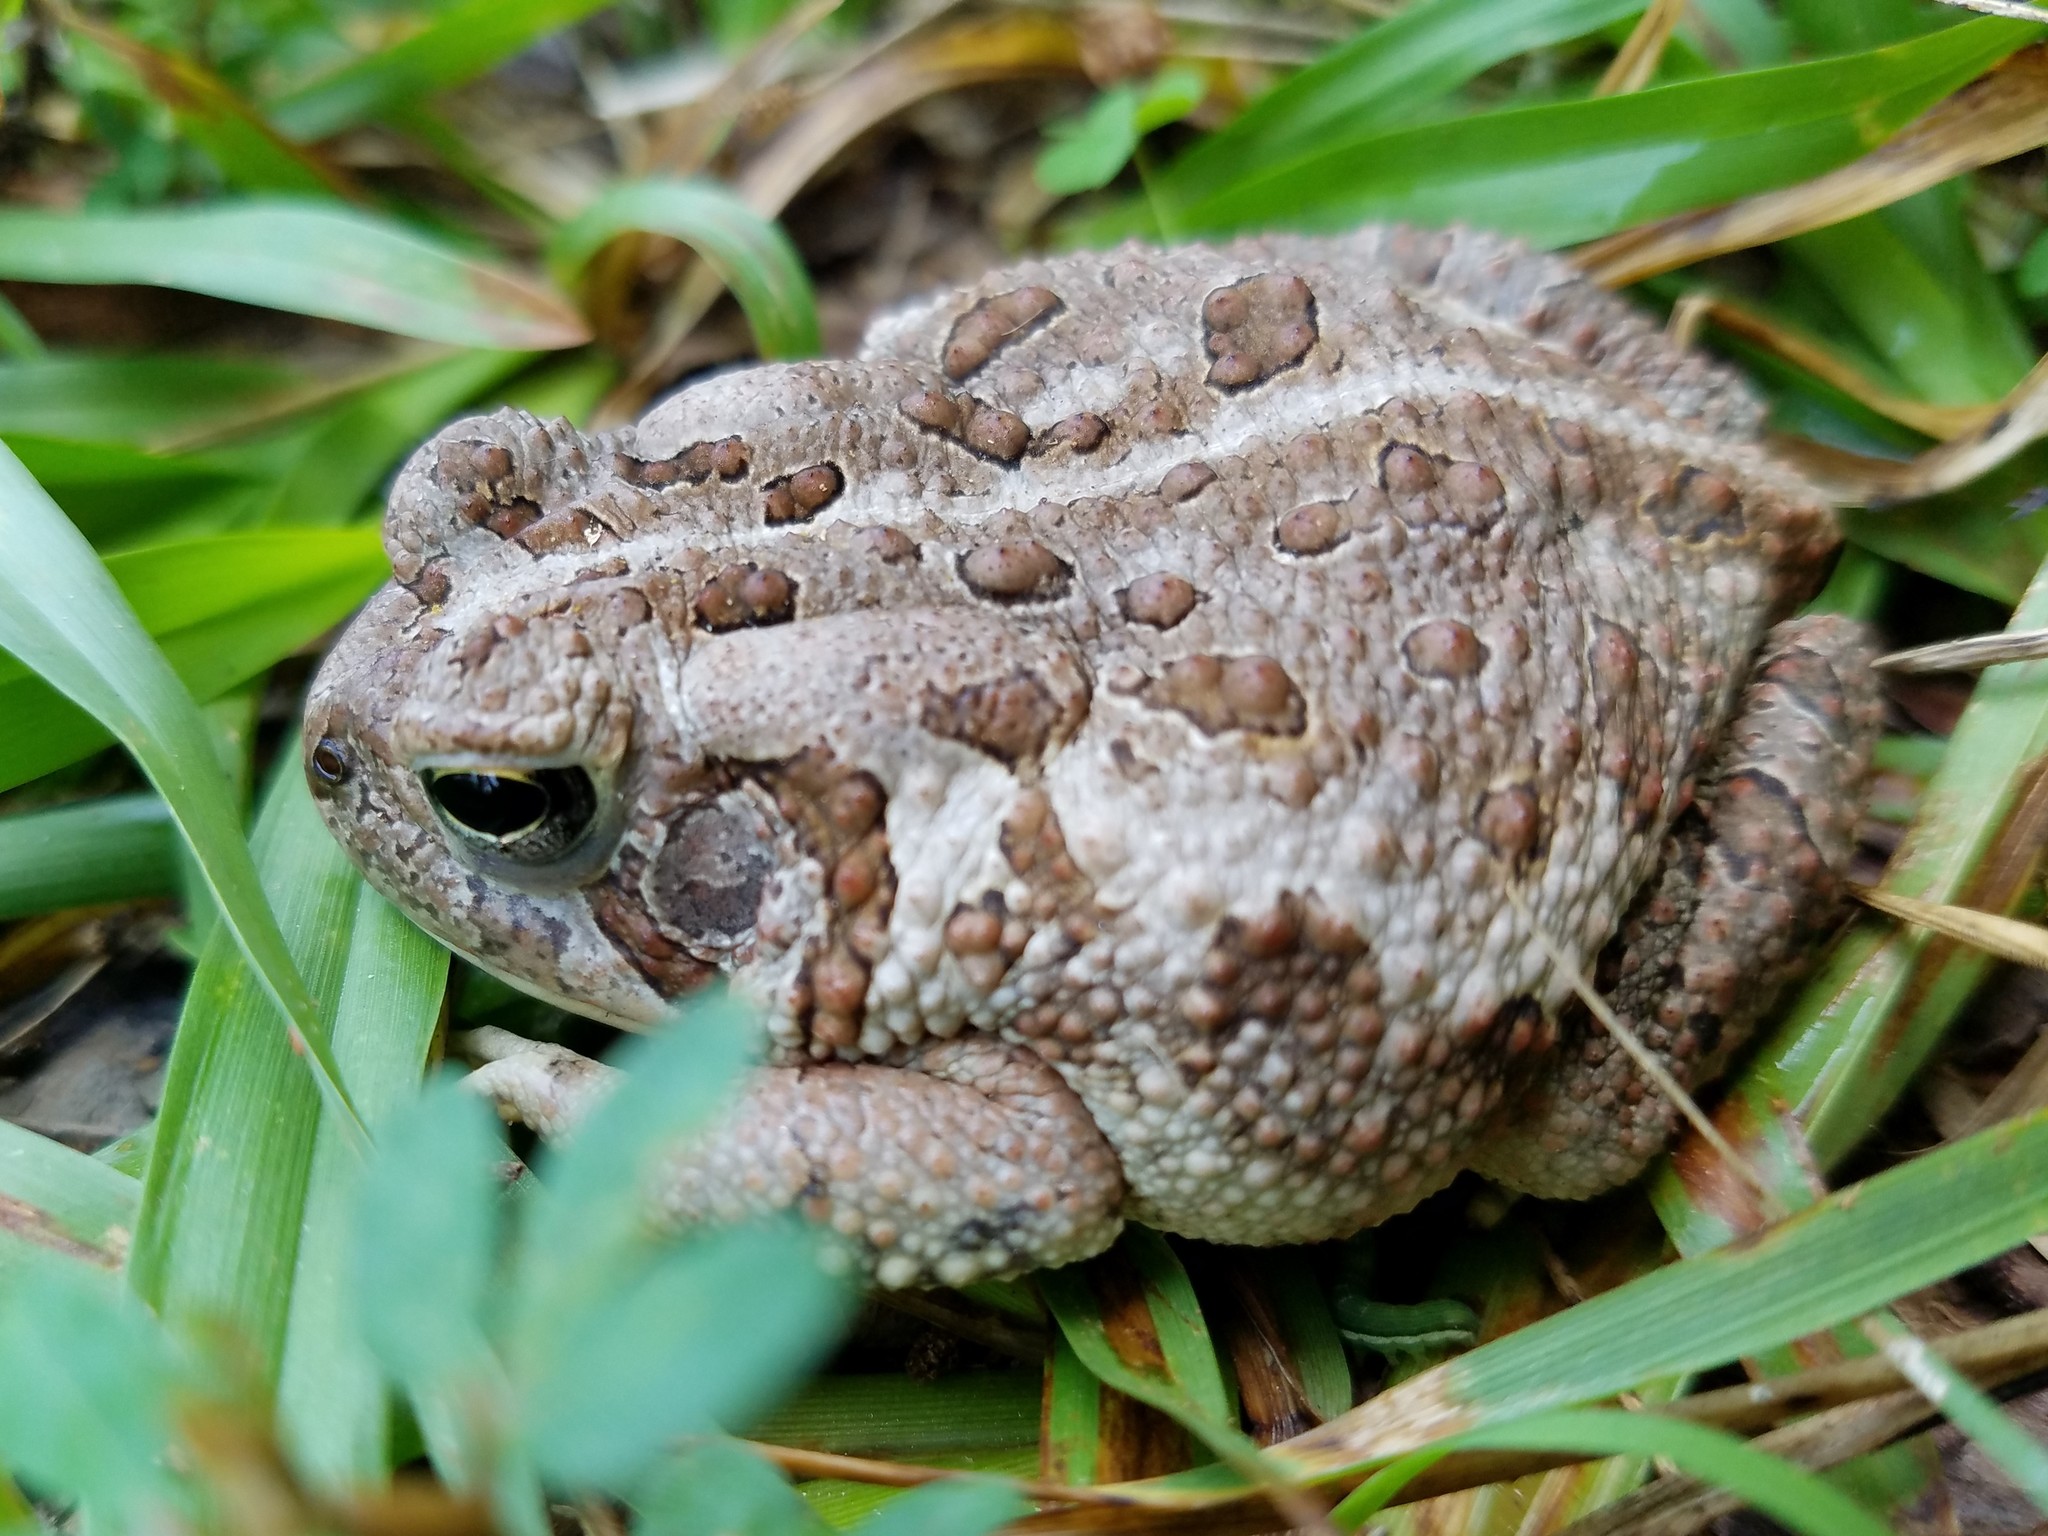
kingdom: Animalia
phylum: Chordata
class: Amphibia
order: Anura
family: Bufonidae
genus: Anaxyrus
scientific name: Anaxyrus fowleri
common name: Fowler's toad
